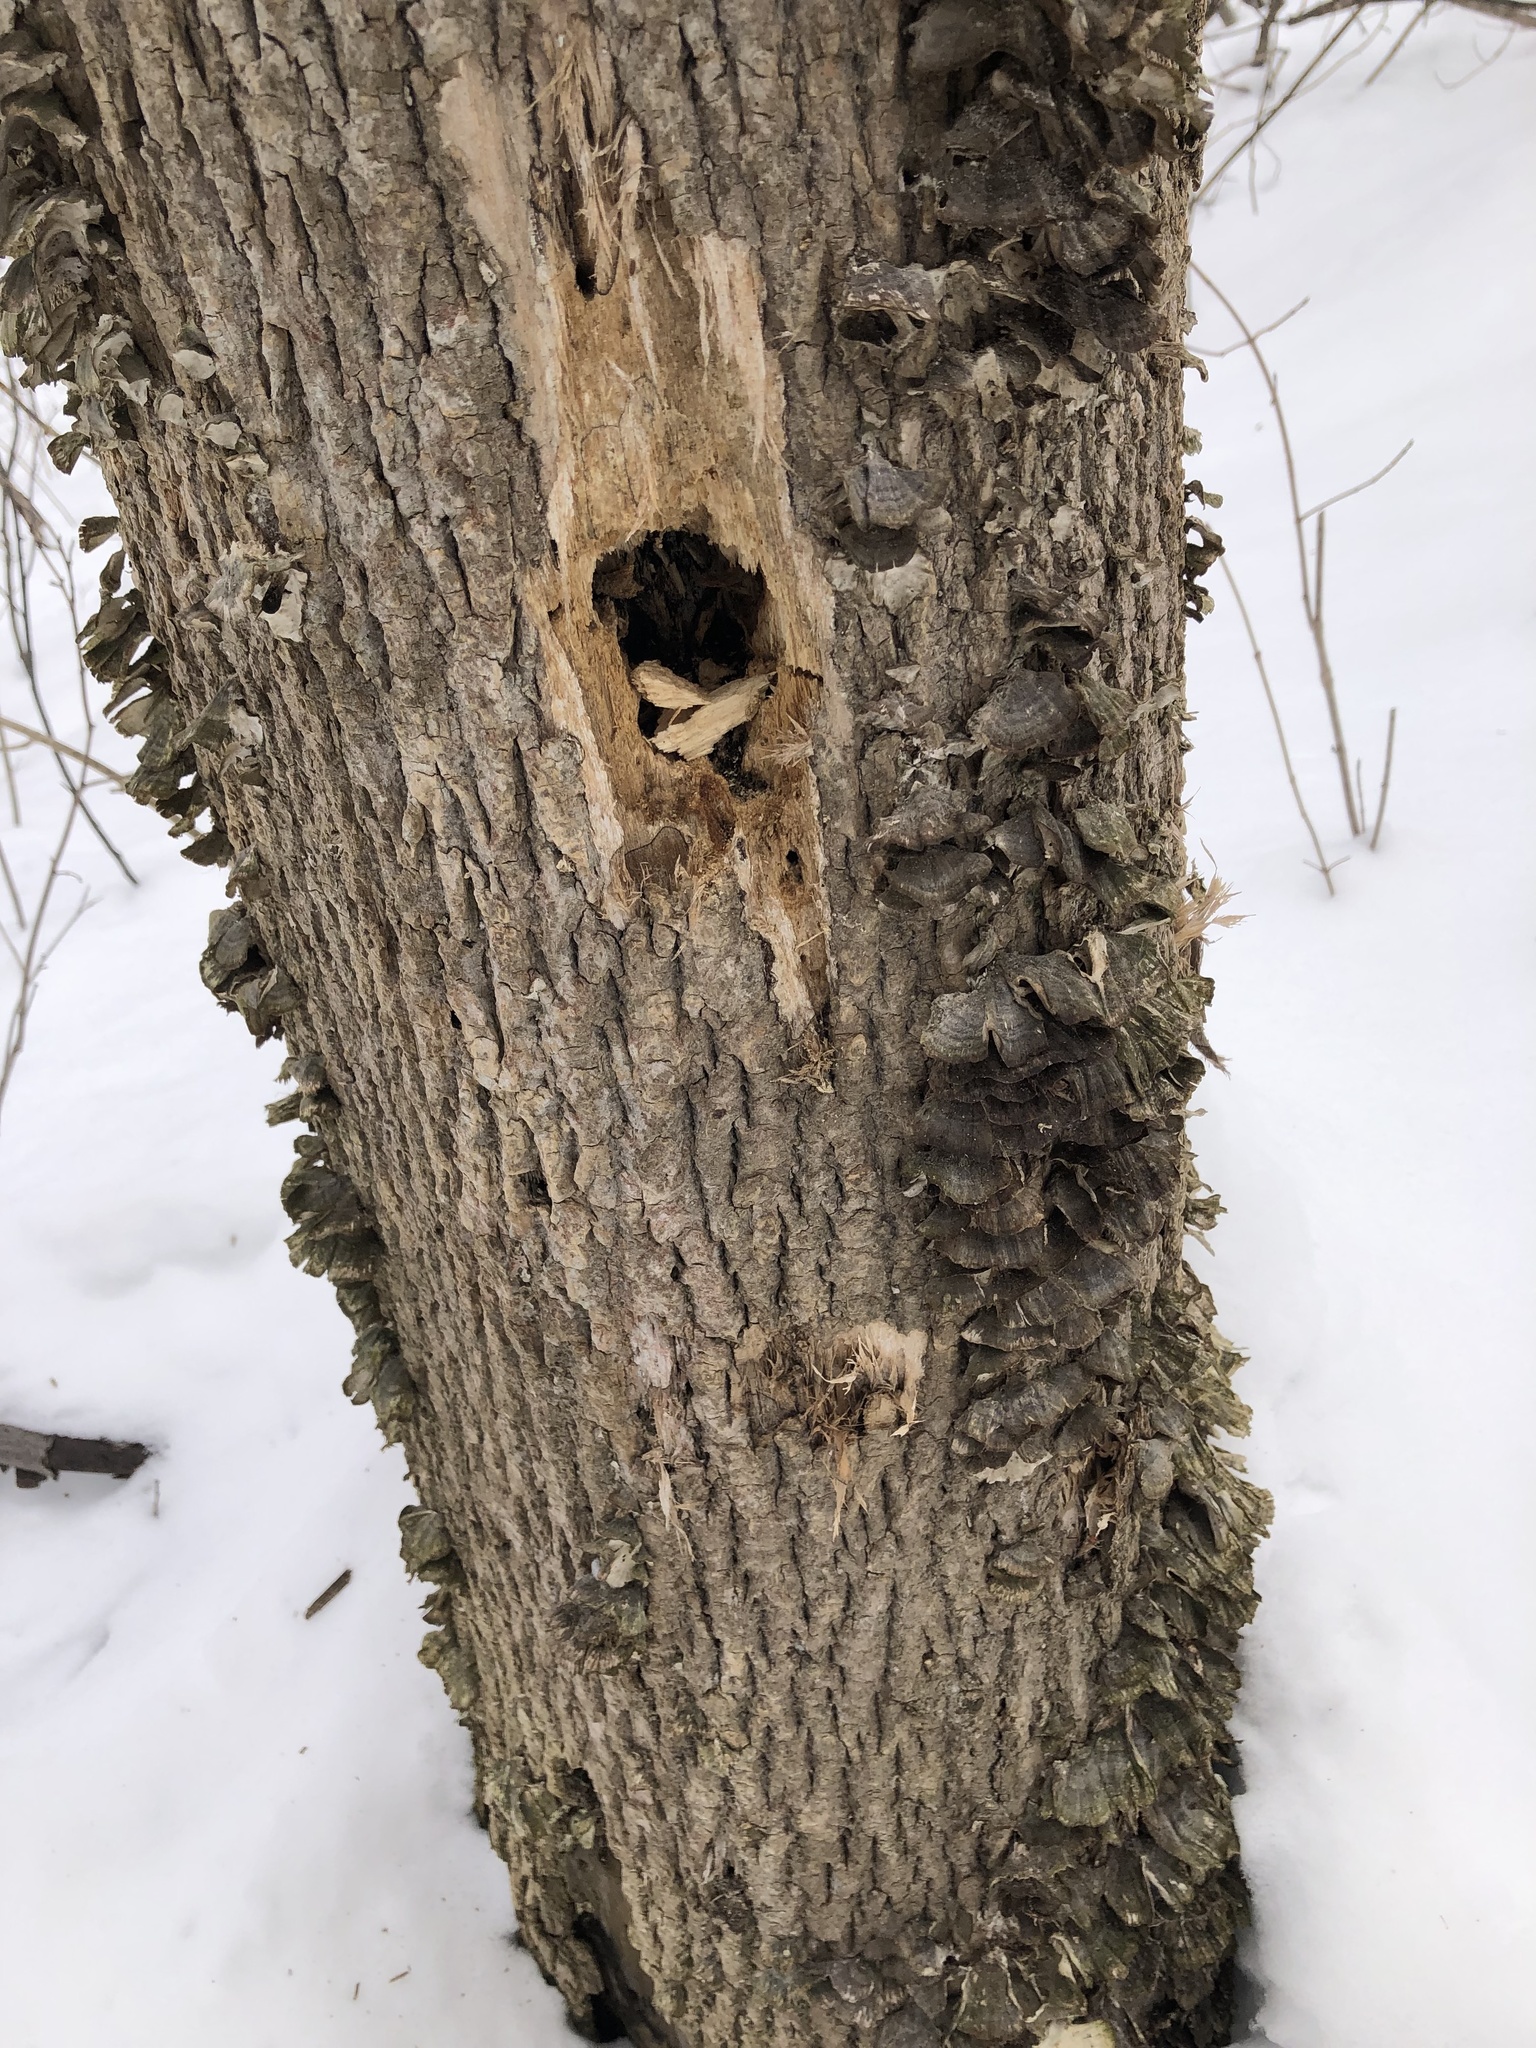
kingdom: Animalia
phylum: Chordata
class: Aves
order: Piciformes
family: Picidae
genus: Dryocopus
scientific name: Dryocopus pileatus
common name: Pileated woodpecker
